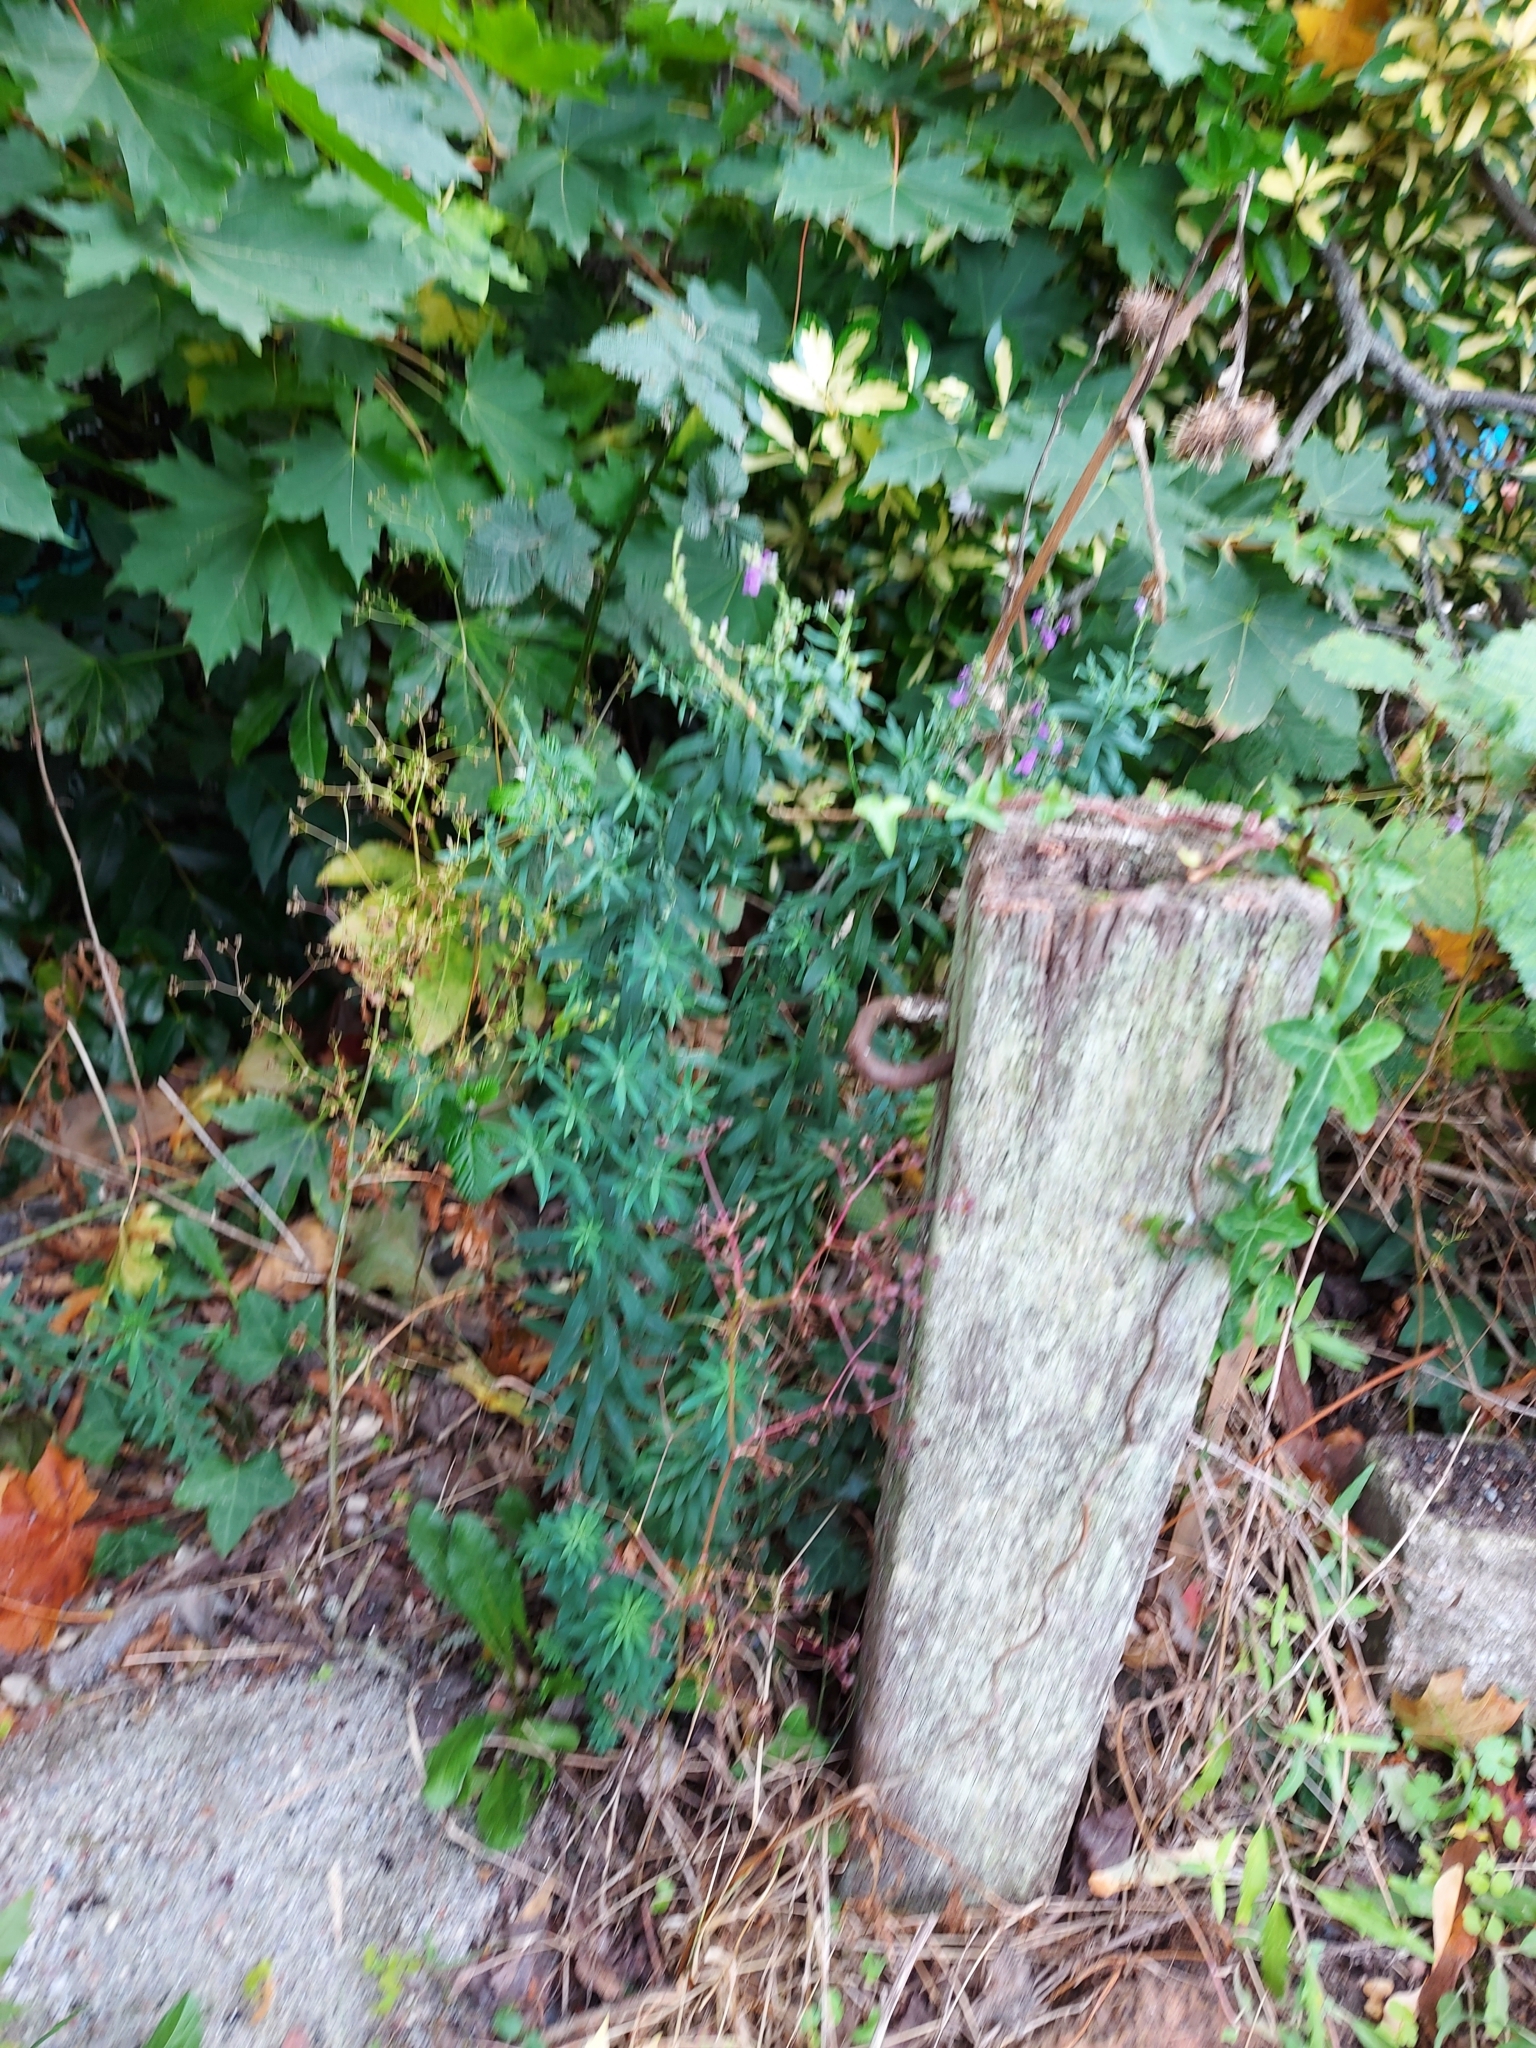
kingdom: Plantae
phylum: Tracheophyta
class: Magnoliopsida
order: Lamiales
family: Plantaginaceae
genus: Linaria
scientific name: Linaria purpurea
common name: Purple toadflax
